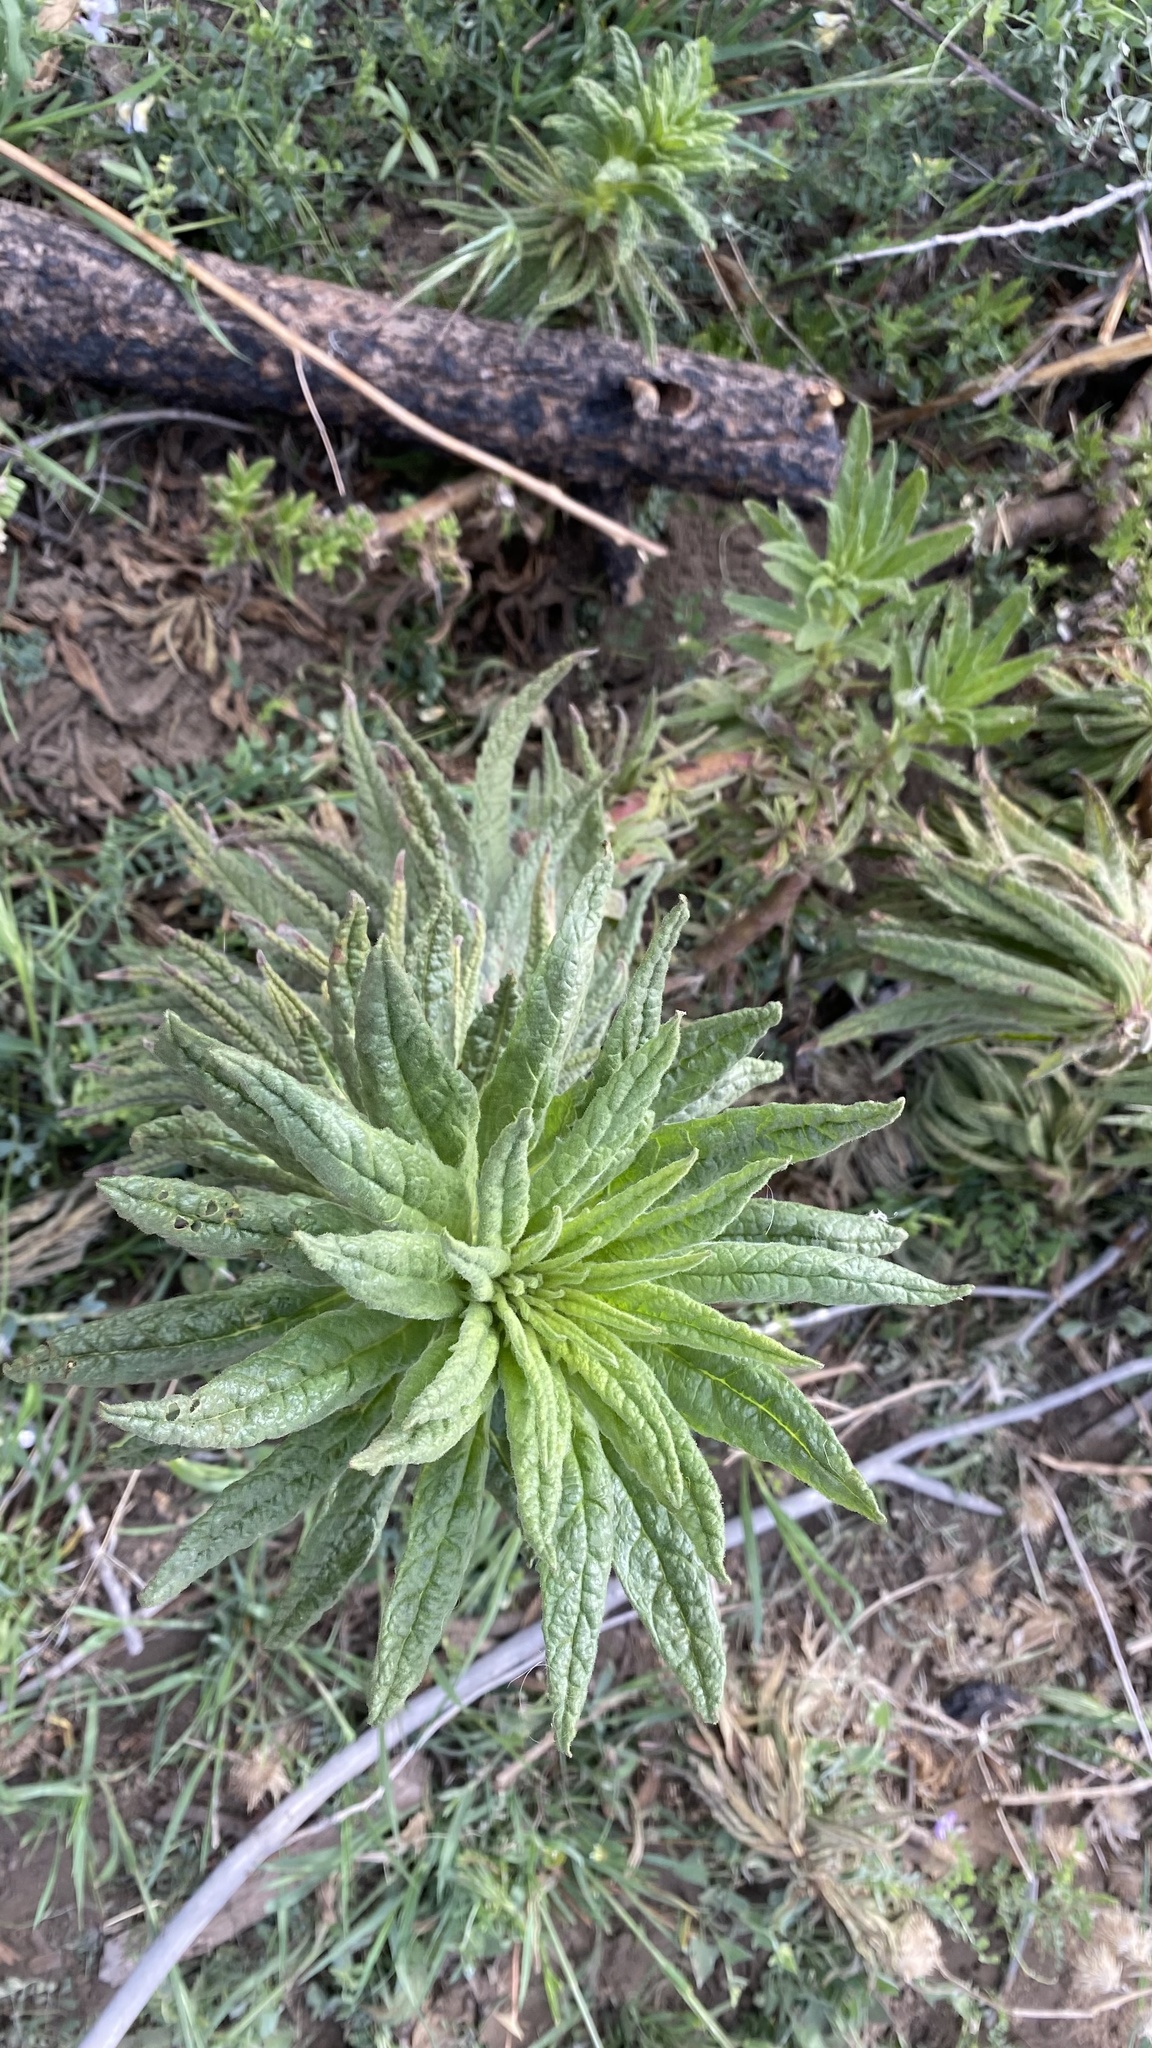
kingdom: Plantae
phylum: Tracheophyta
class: Magnoliopsida
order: Boraginales
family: Namaceae
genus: Turricula
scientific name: Turricula parryi
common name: Poodle-dog-bush
